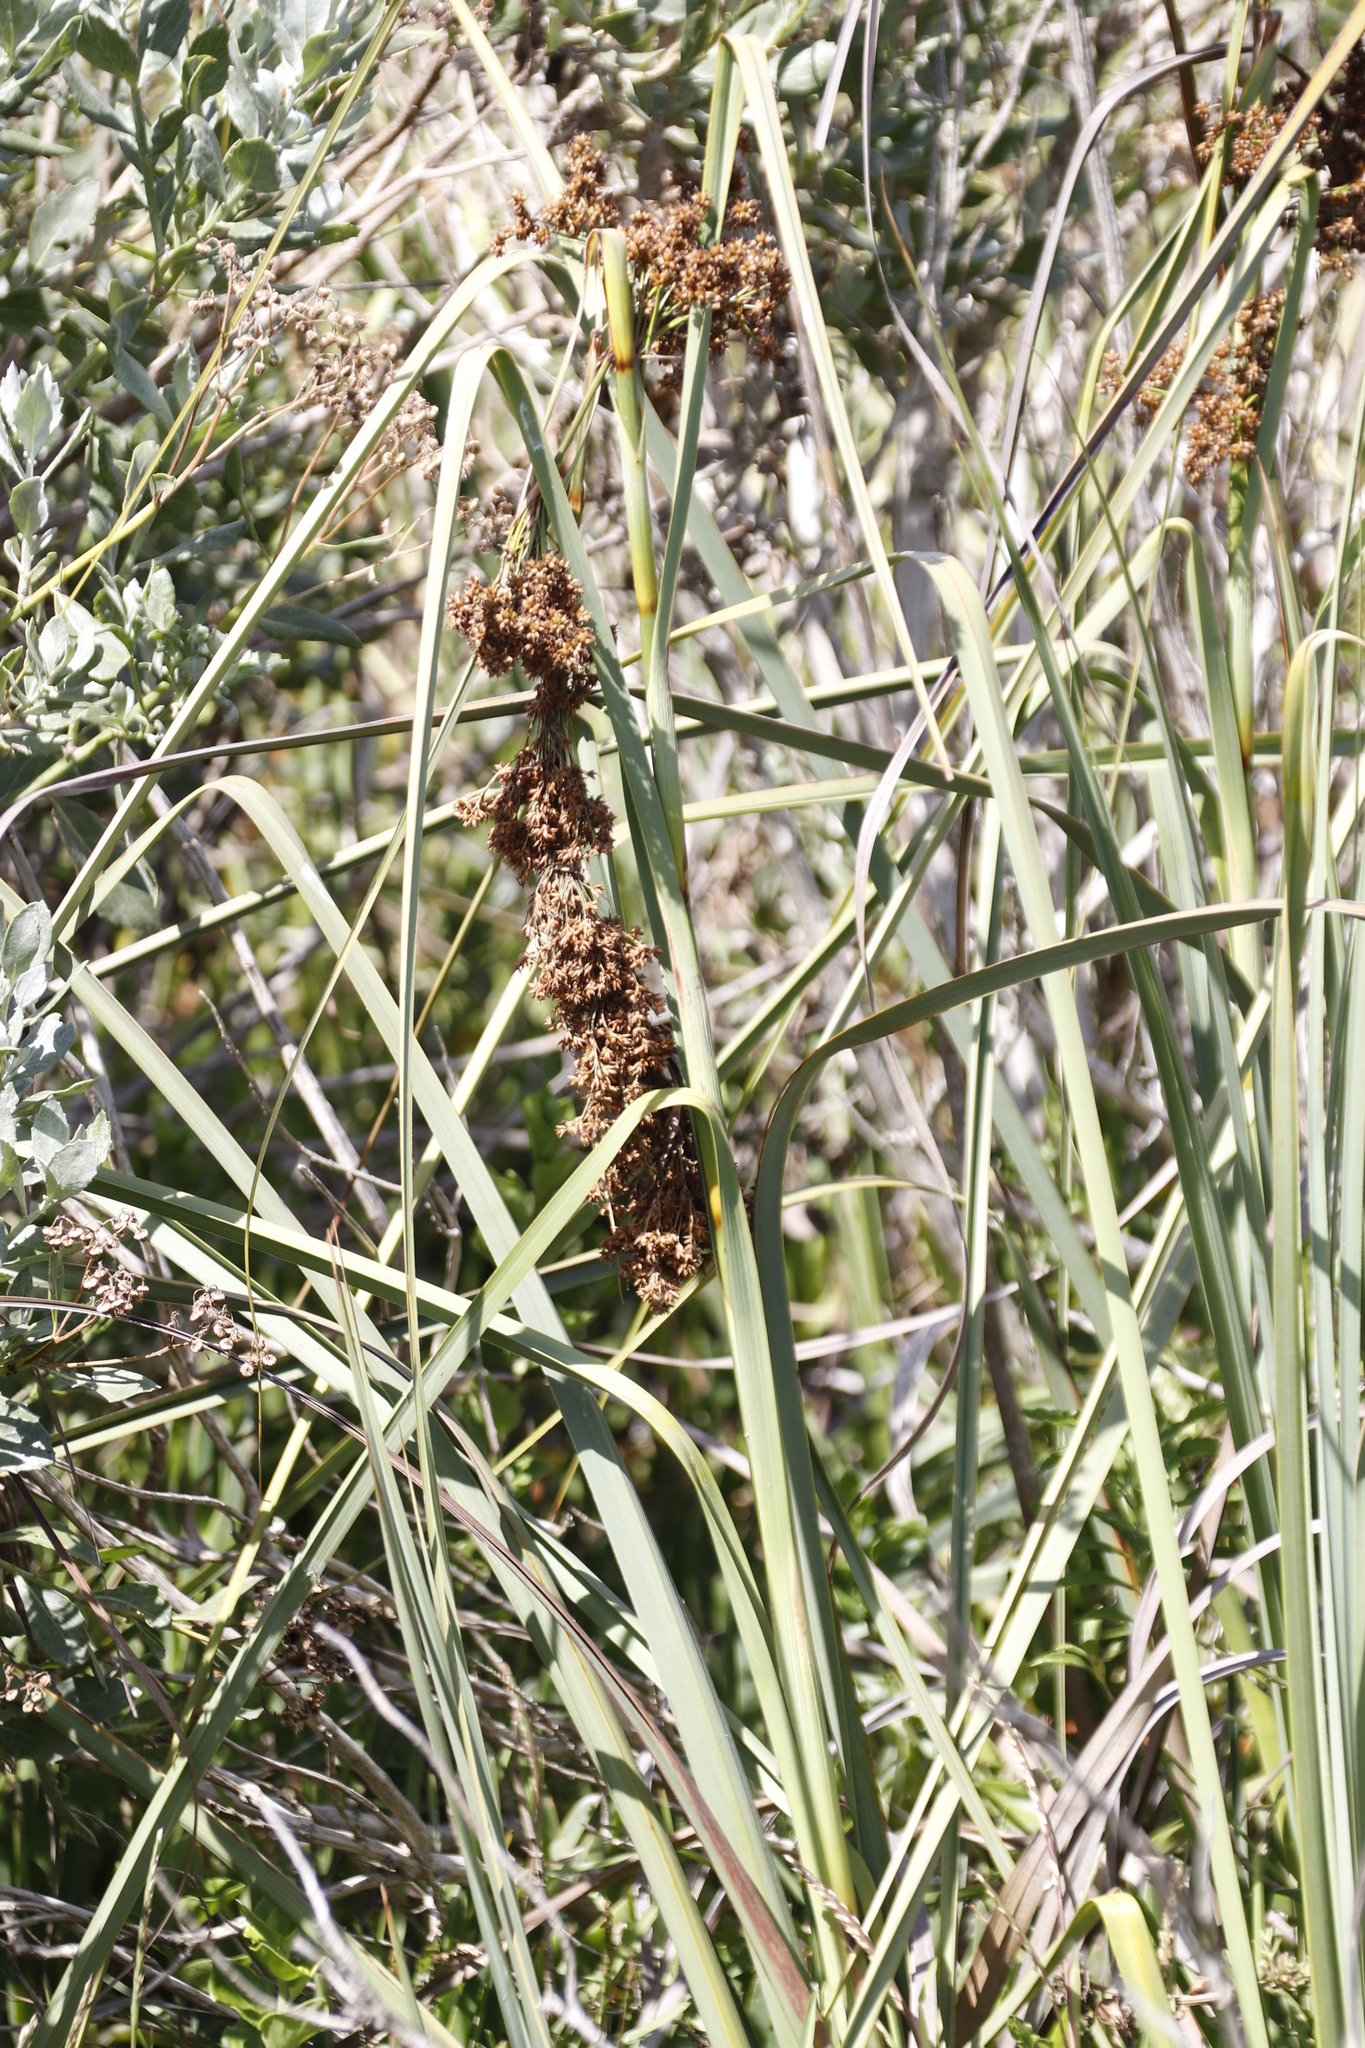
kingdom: Plantae
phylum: Tracheophyta
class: Liliopsida
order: Poales
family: Cyperaceae
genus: Cladium
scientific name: Cladium mariscus
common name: Great fen-sedge
